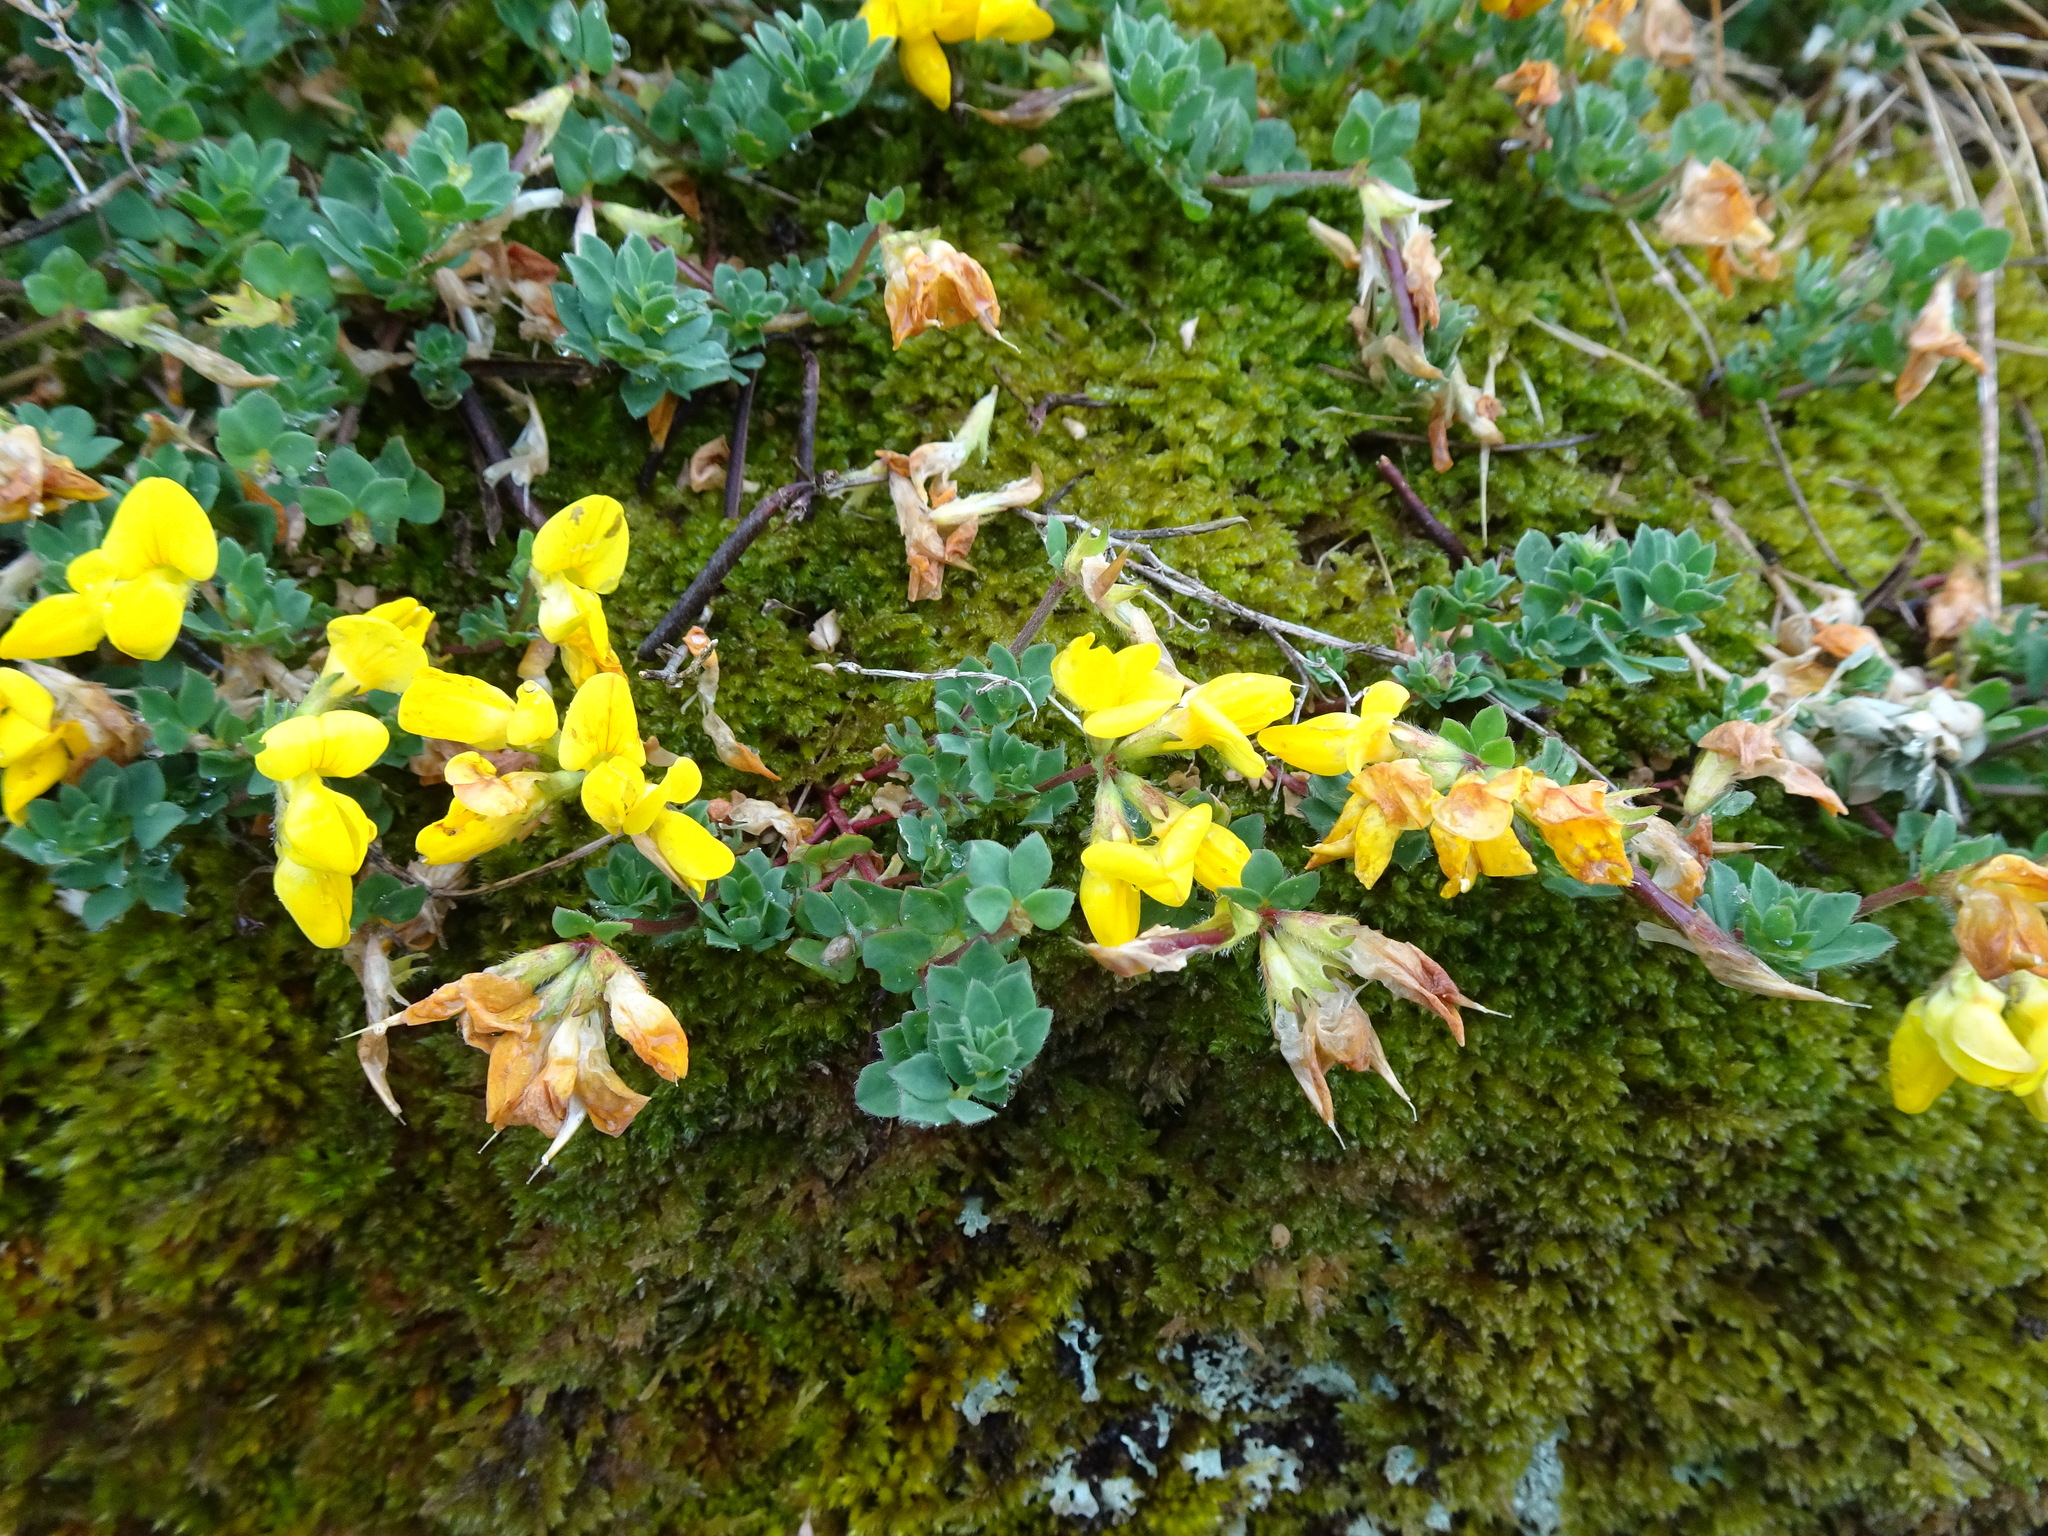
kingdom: Plantae
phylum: Tracheophyta
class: Magnoliopsida
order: Fabales
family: Fabaceae
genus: Lotus
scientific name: Lotus corniculatus
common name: Common bird's-foot-trefoil
